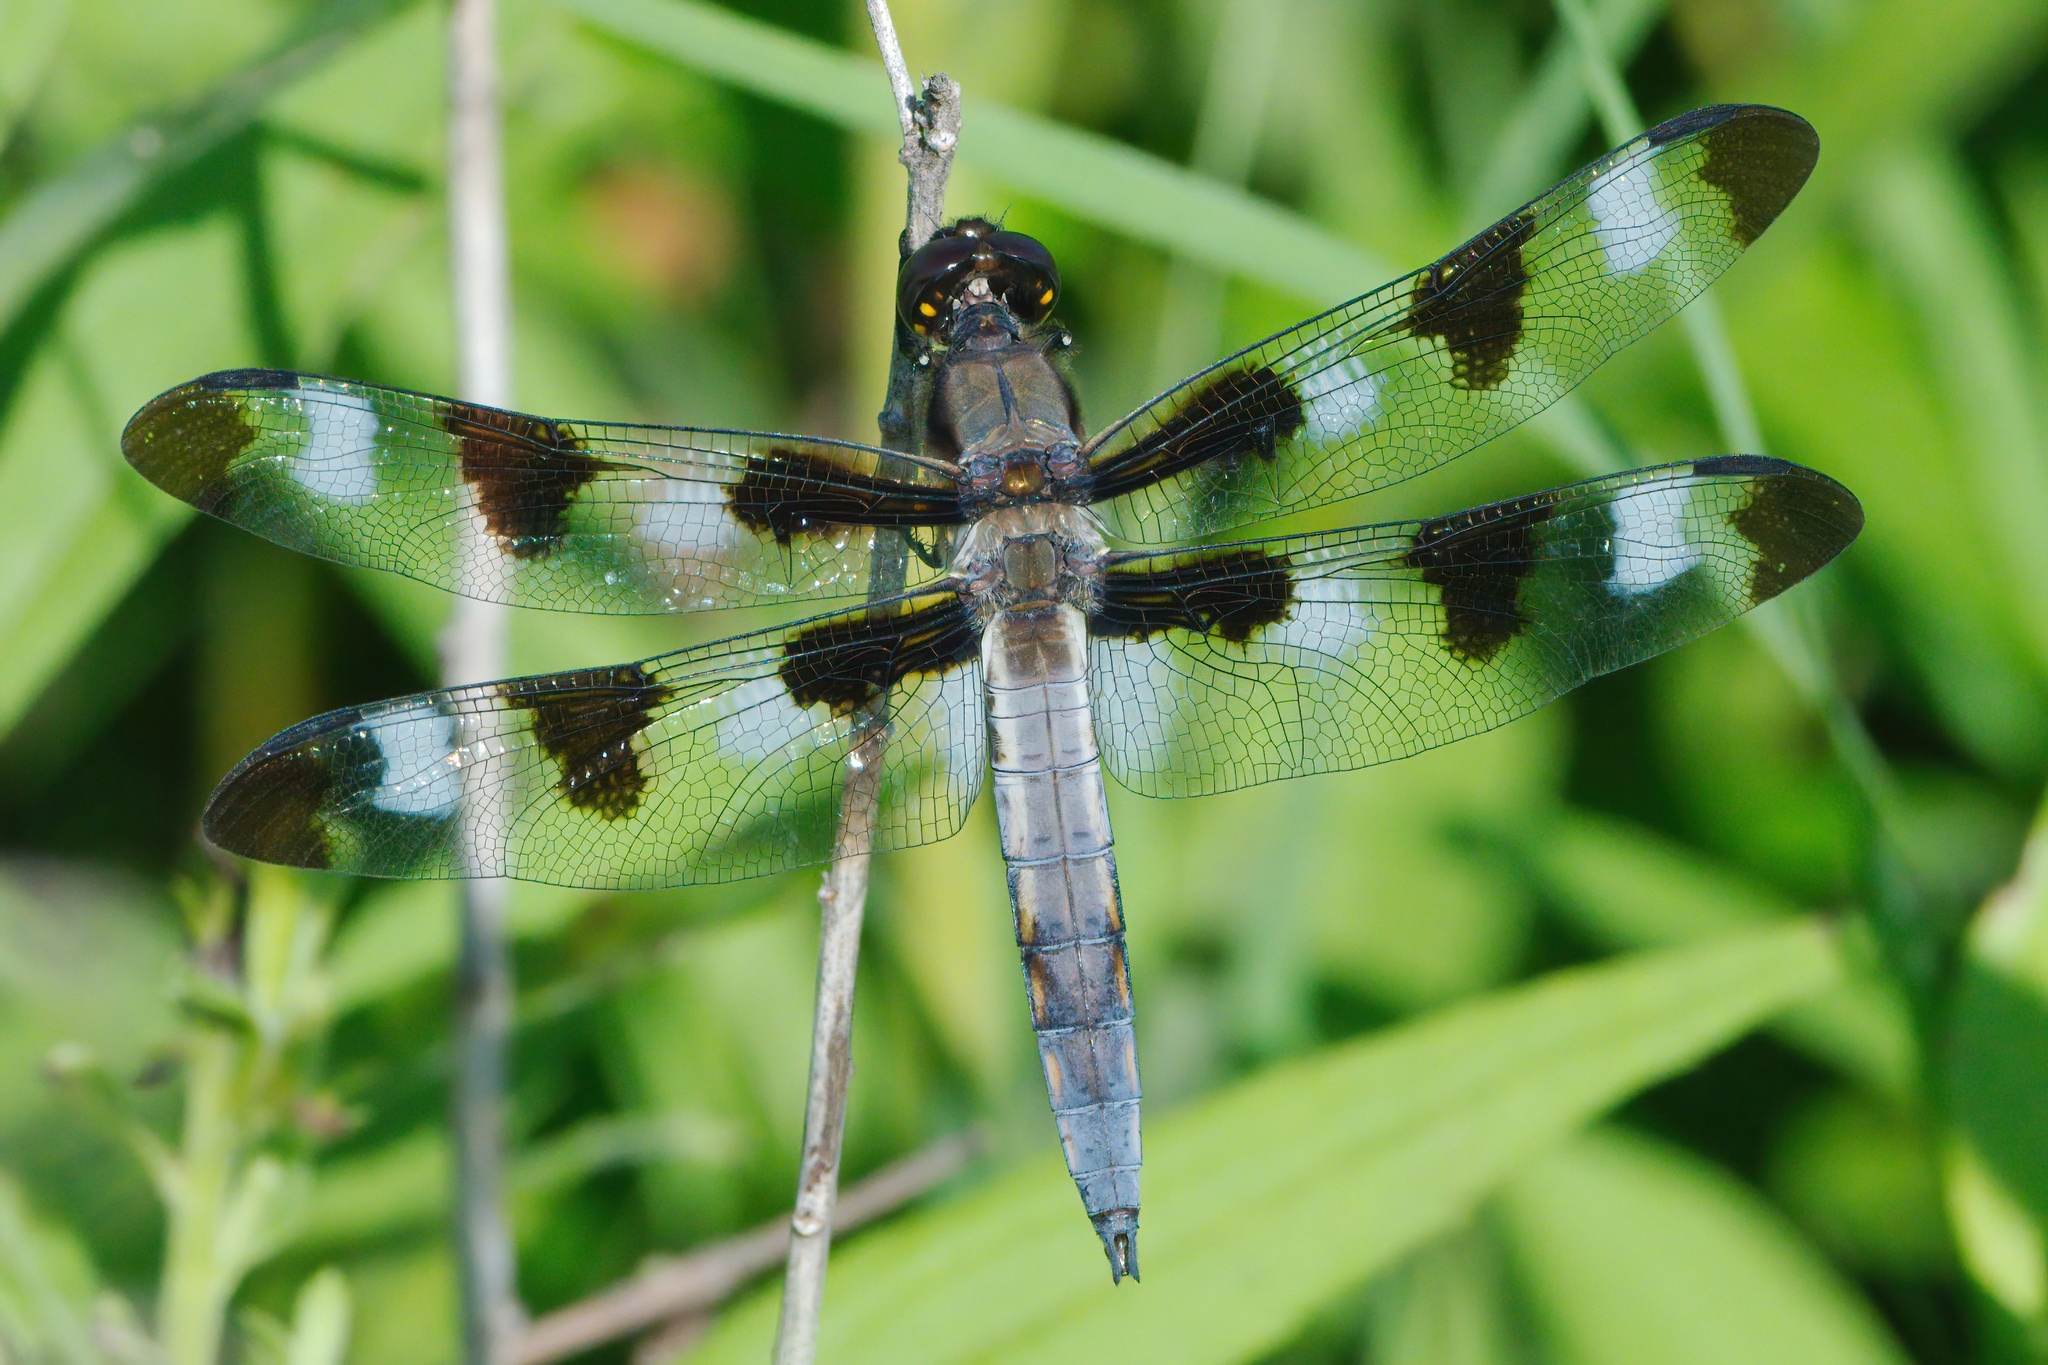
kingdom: Animalia
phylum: Arthropoda
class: Insecta
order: Odonata
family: Libellulidae
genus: Libellula
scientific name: Libellula pulchella
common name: Twelve-spotted skimmer
